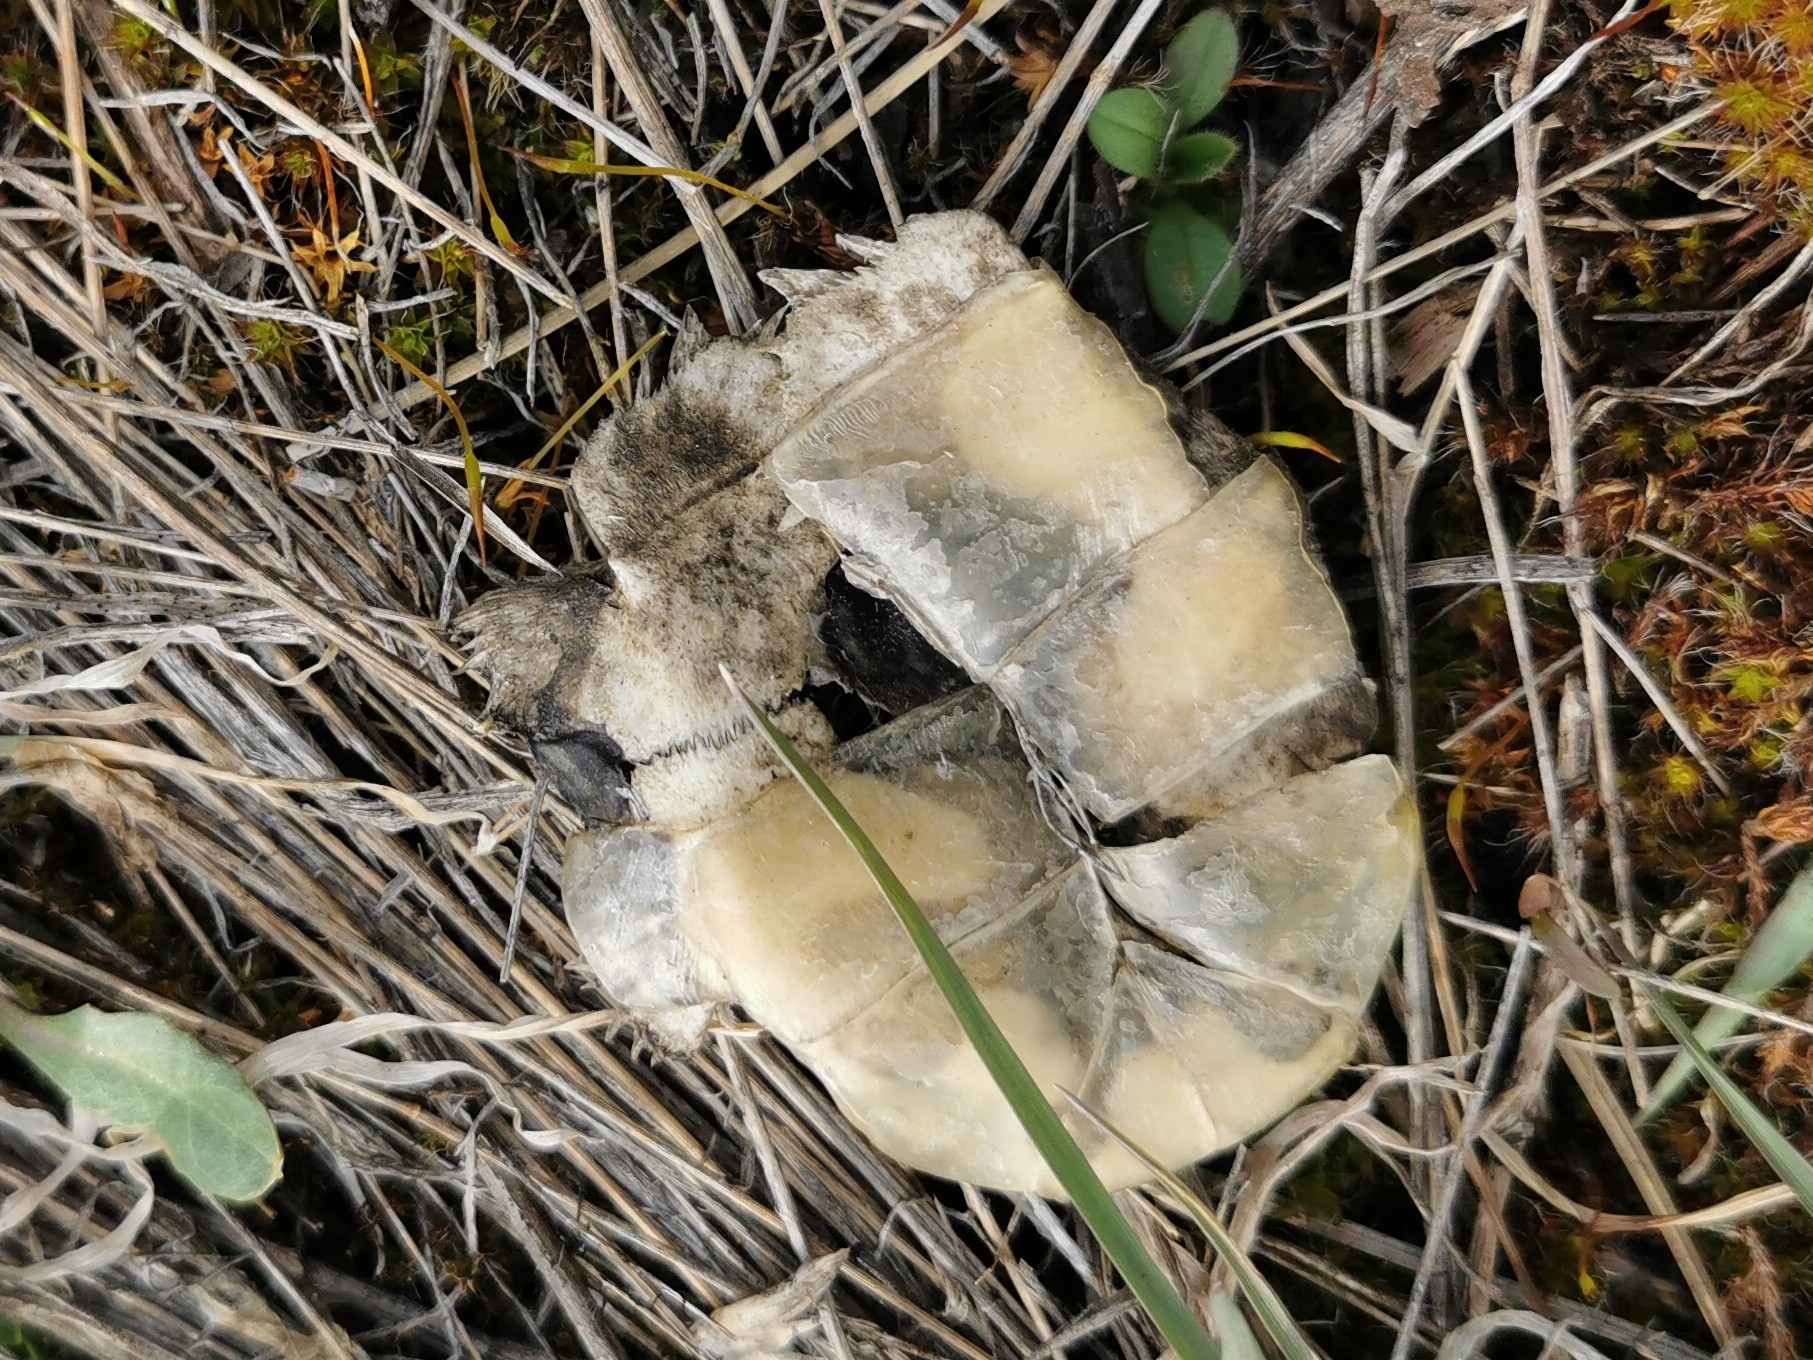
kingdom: Animalia
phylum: Chordata
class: Testudines
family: Emydidae
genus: Chrysemys
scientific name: Chrysemys picta
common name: Painted turtle
